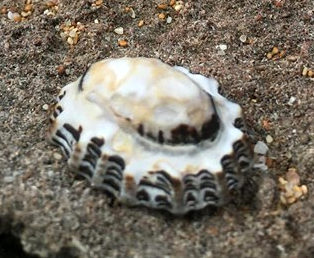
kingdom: Animalia
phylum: Mollusca
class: Gastropoda
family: Lottiidae
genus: Patelloida
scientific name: Patelloida alticostata
